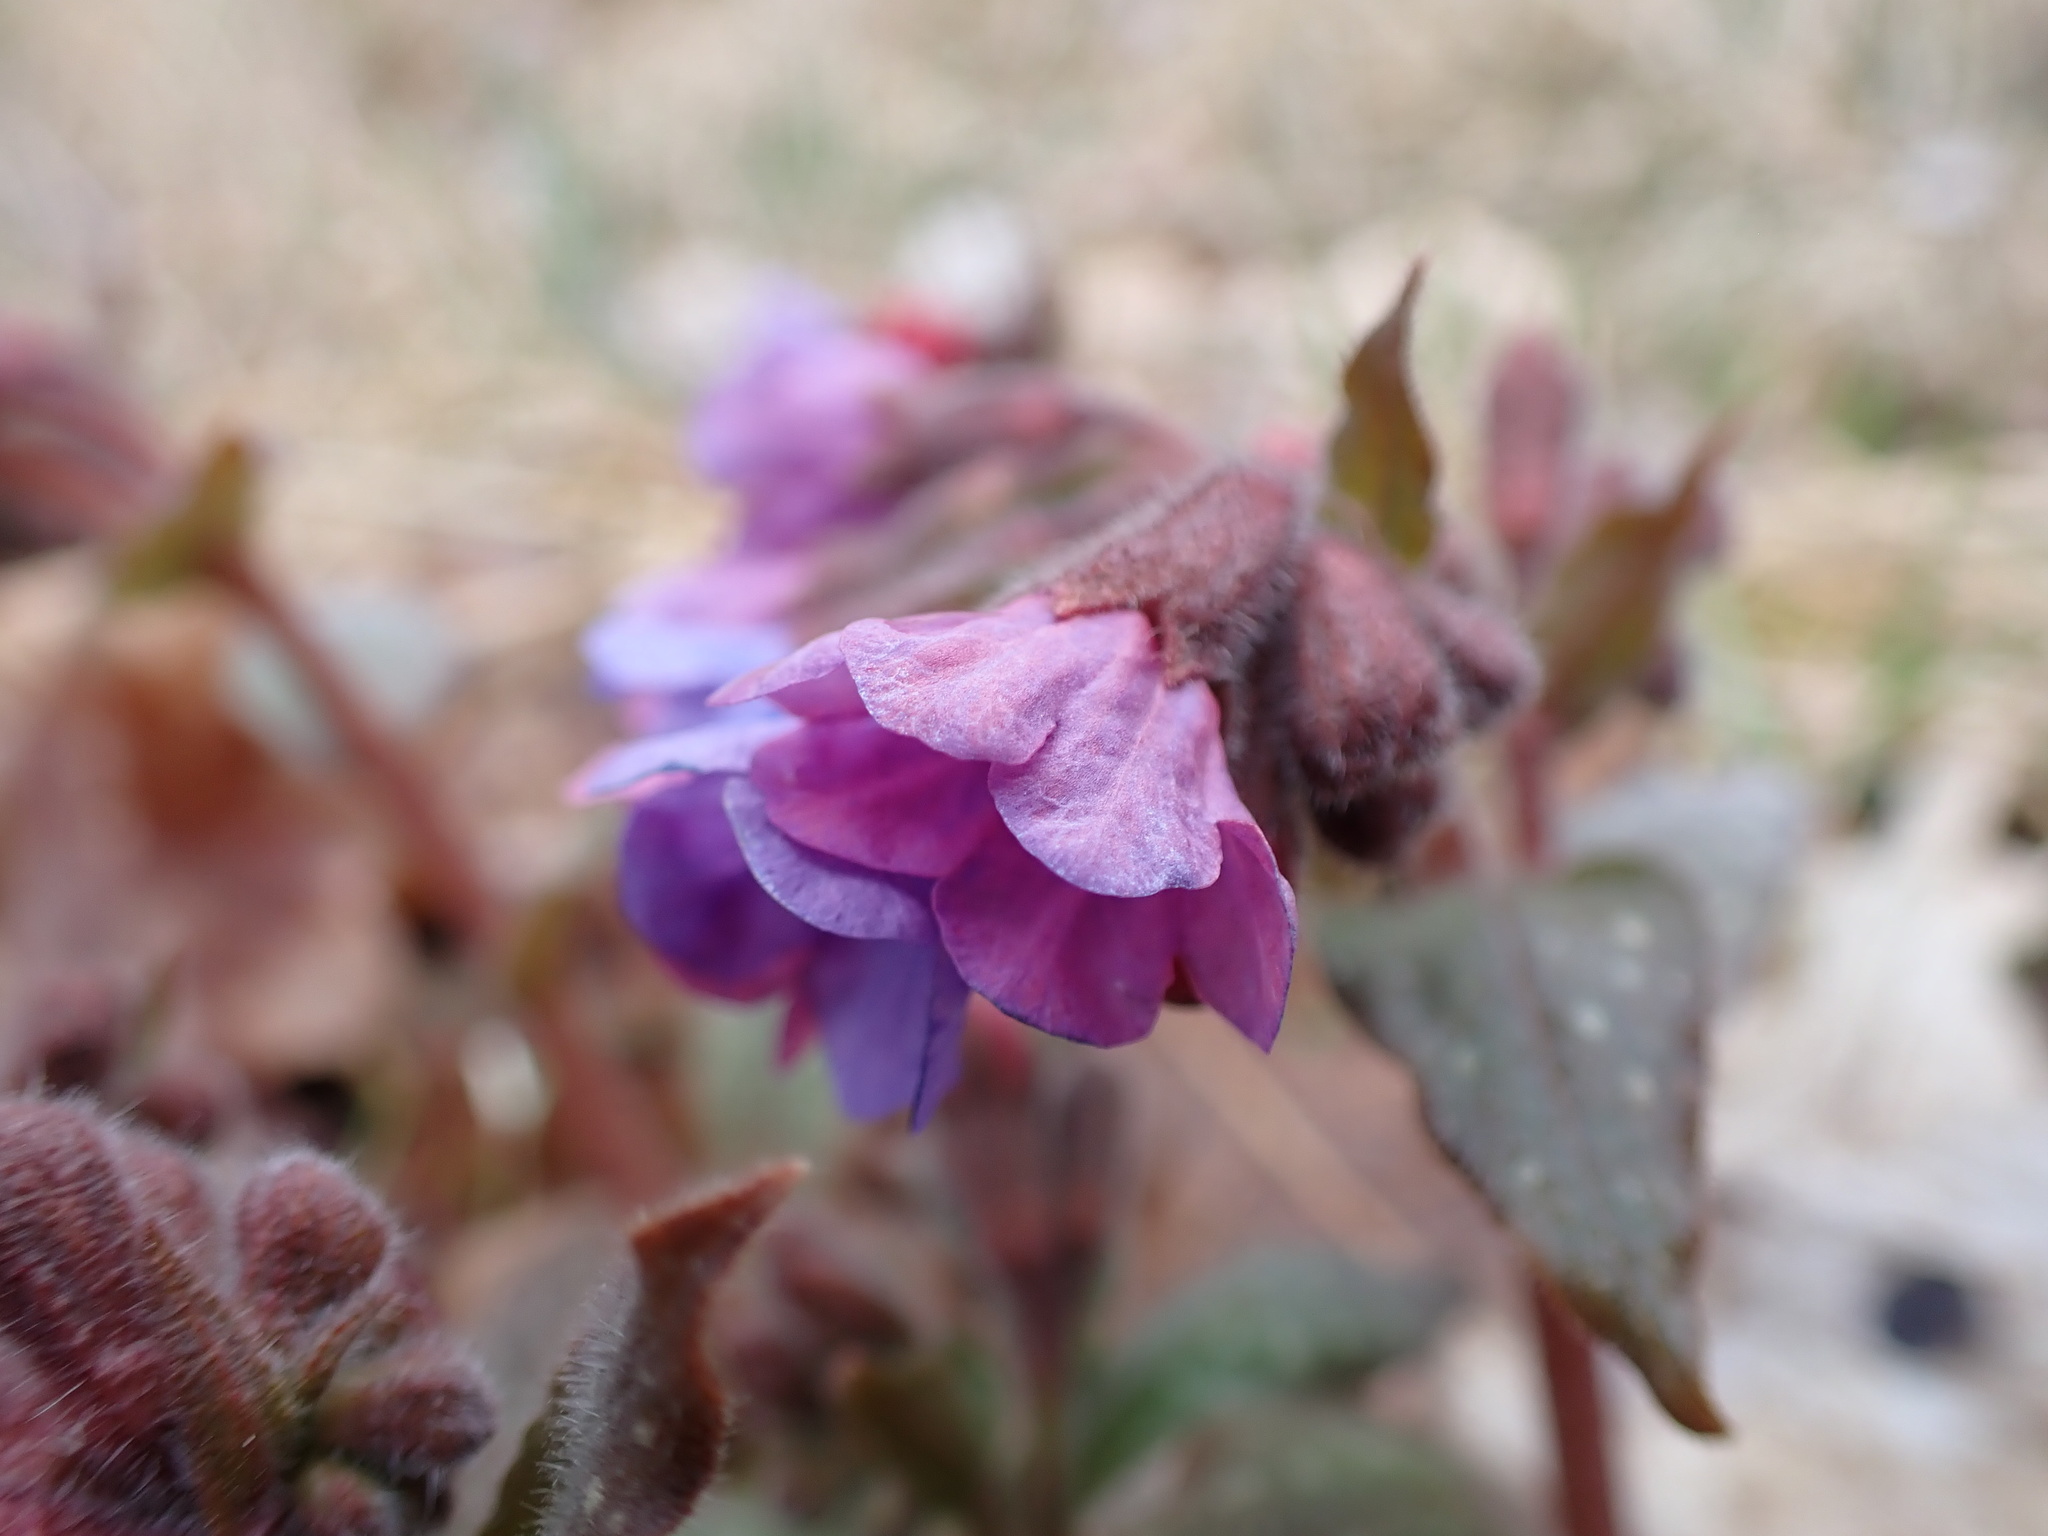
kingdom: Plantae
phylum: Tracheophyta
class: Magnoliopsida
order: Boraginales
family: Boraginaceae
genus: Pulmonaria
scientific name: Pulmonaria officinalis
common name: Lungwort
